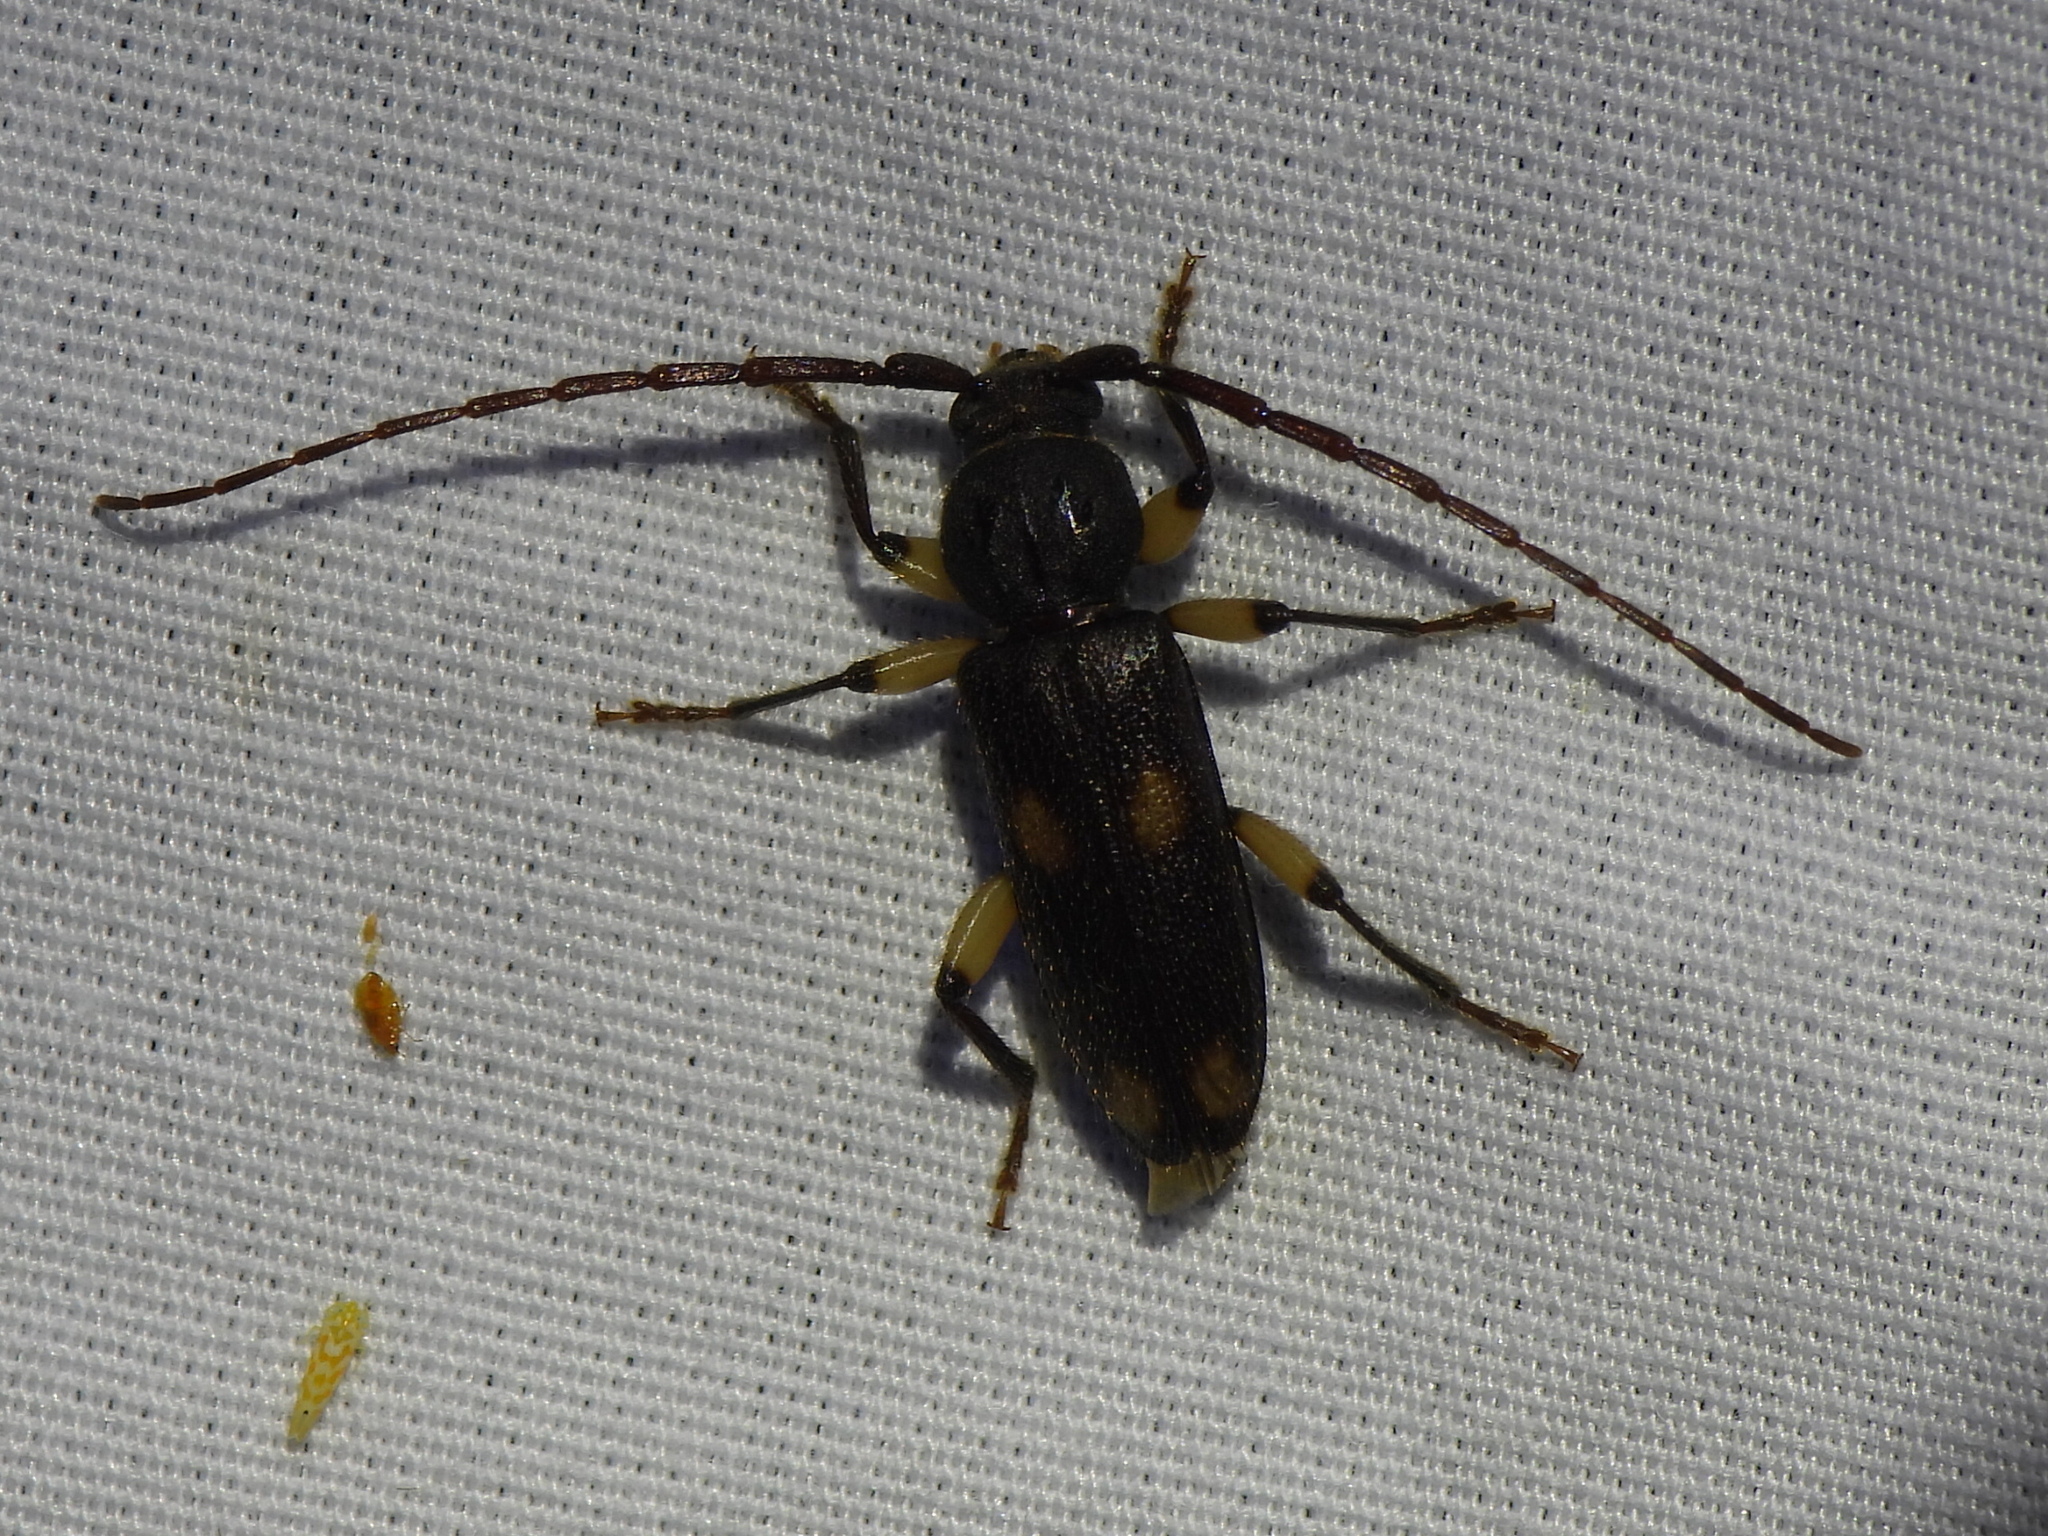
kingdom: Animalia
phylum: Arthropoda
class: Insecta
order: Coleoptera
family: Cerambycidae
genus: Tylonotus
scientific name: Tylonotus bimaculatus
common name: Ash and privet borer
